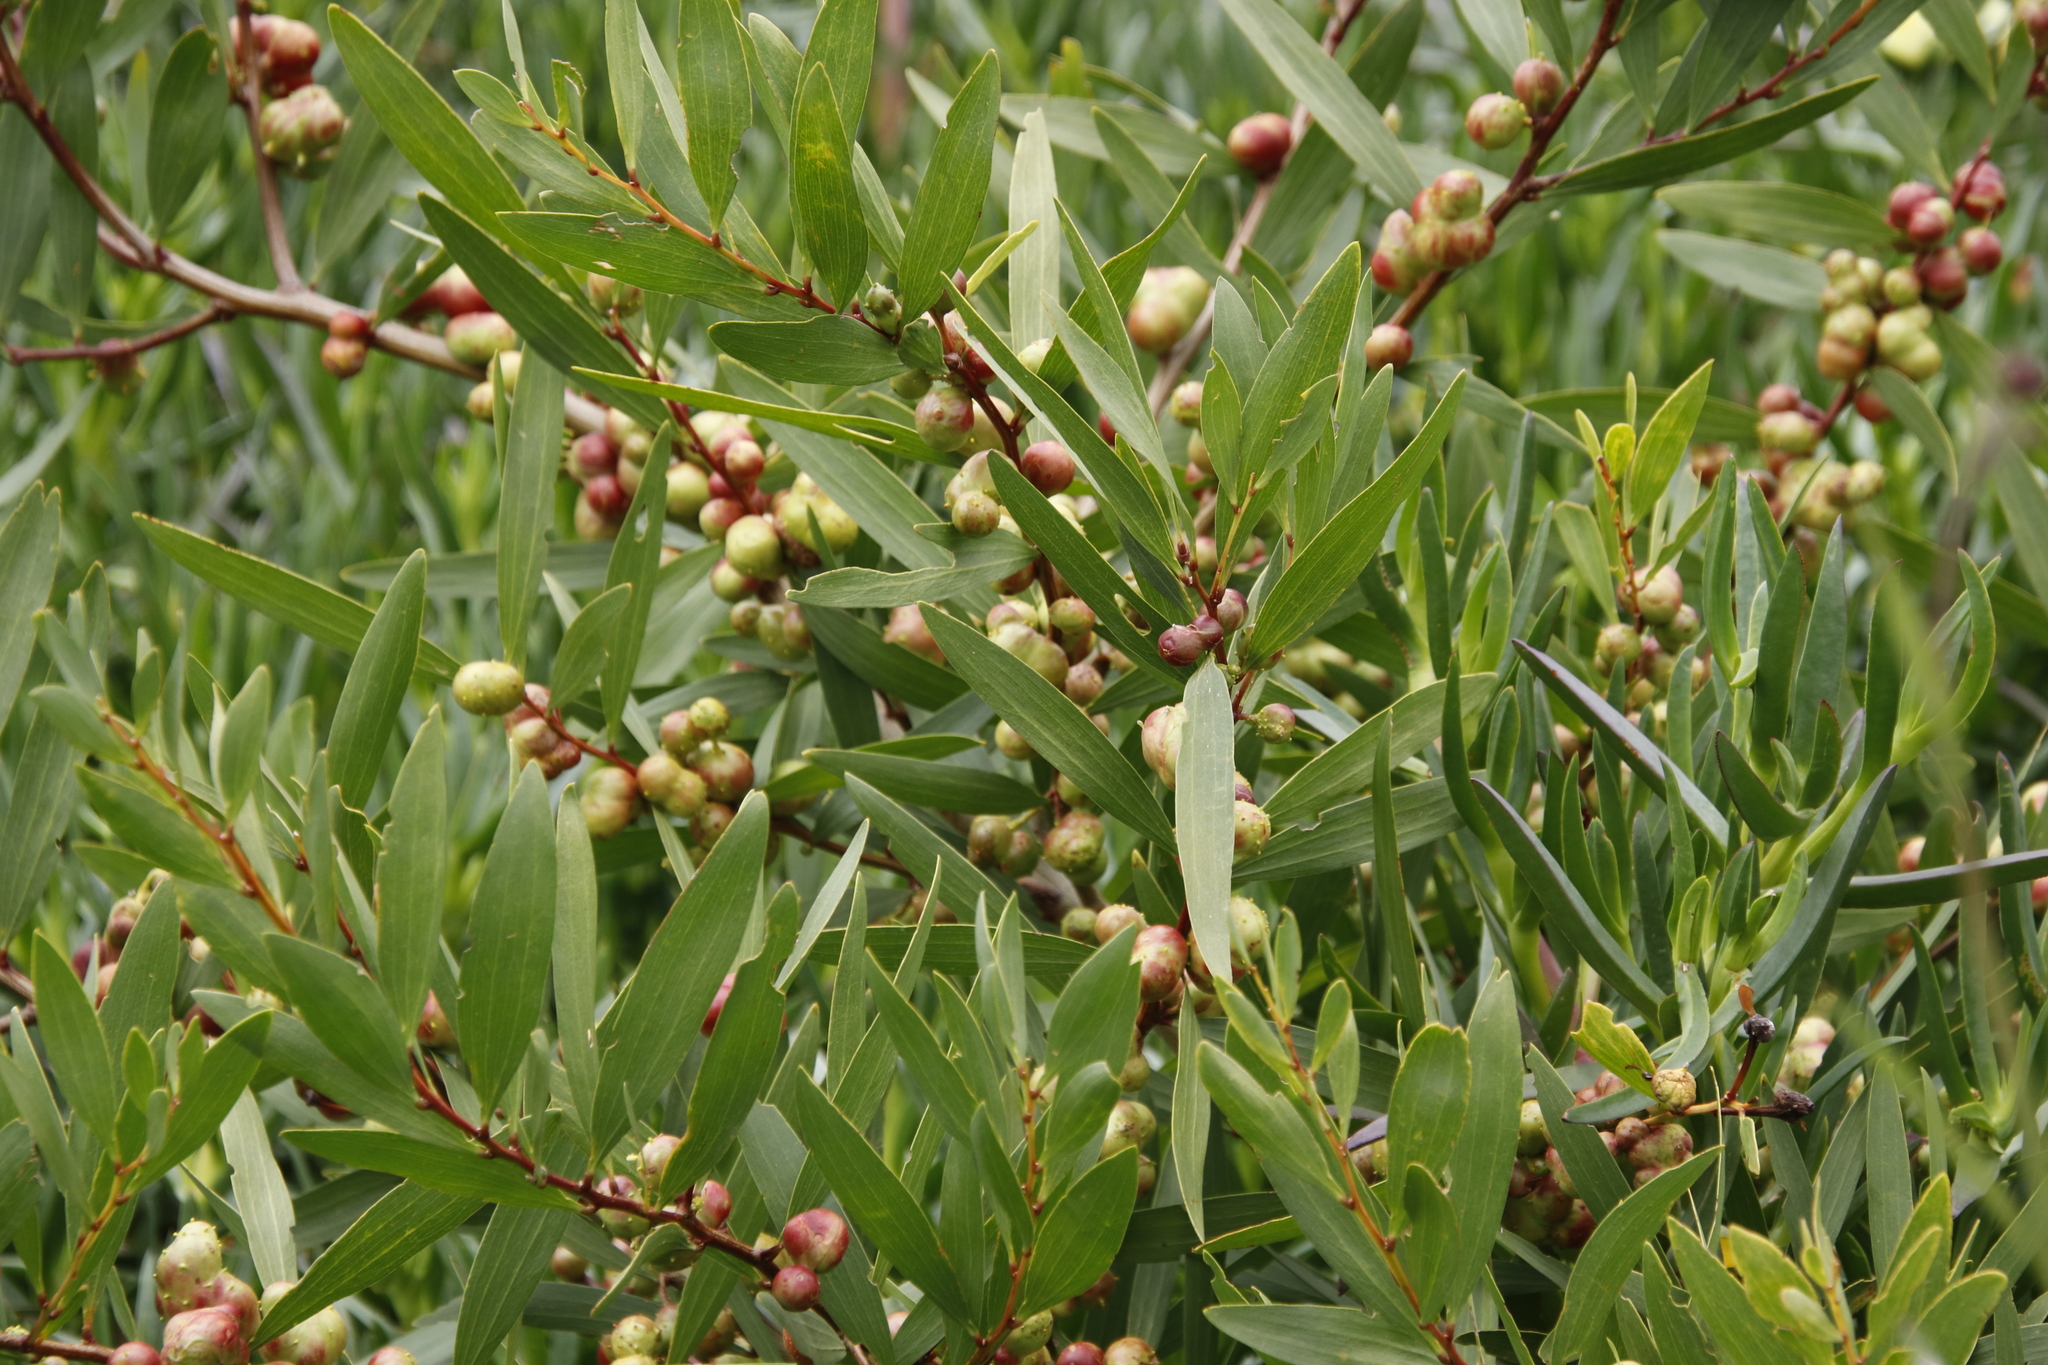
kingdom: Plantae
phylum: Tracheophyta
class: Magnoliopsida
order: Fabales
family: Fabaceae
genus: Acacia
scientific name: Acacia longifolia
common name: Sydney golden wattle
